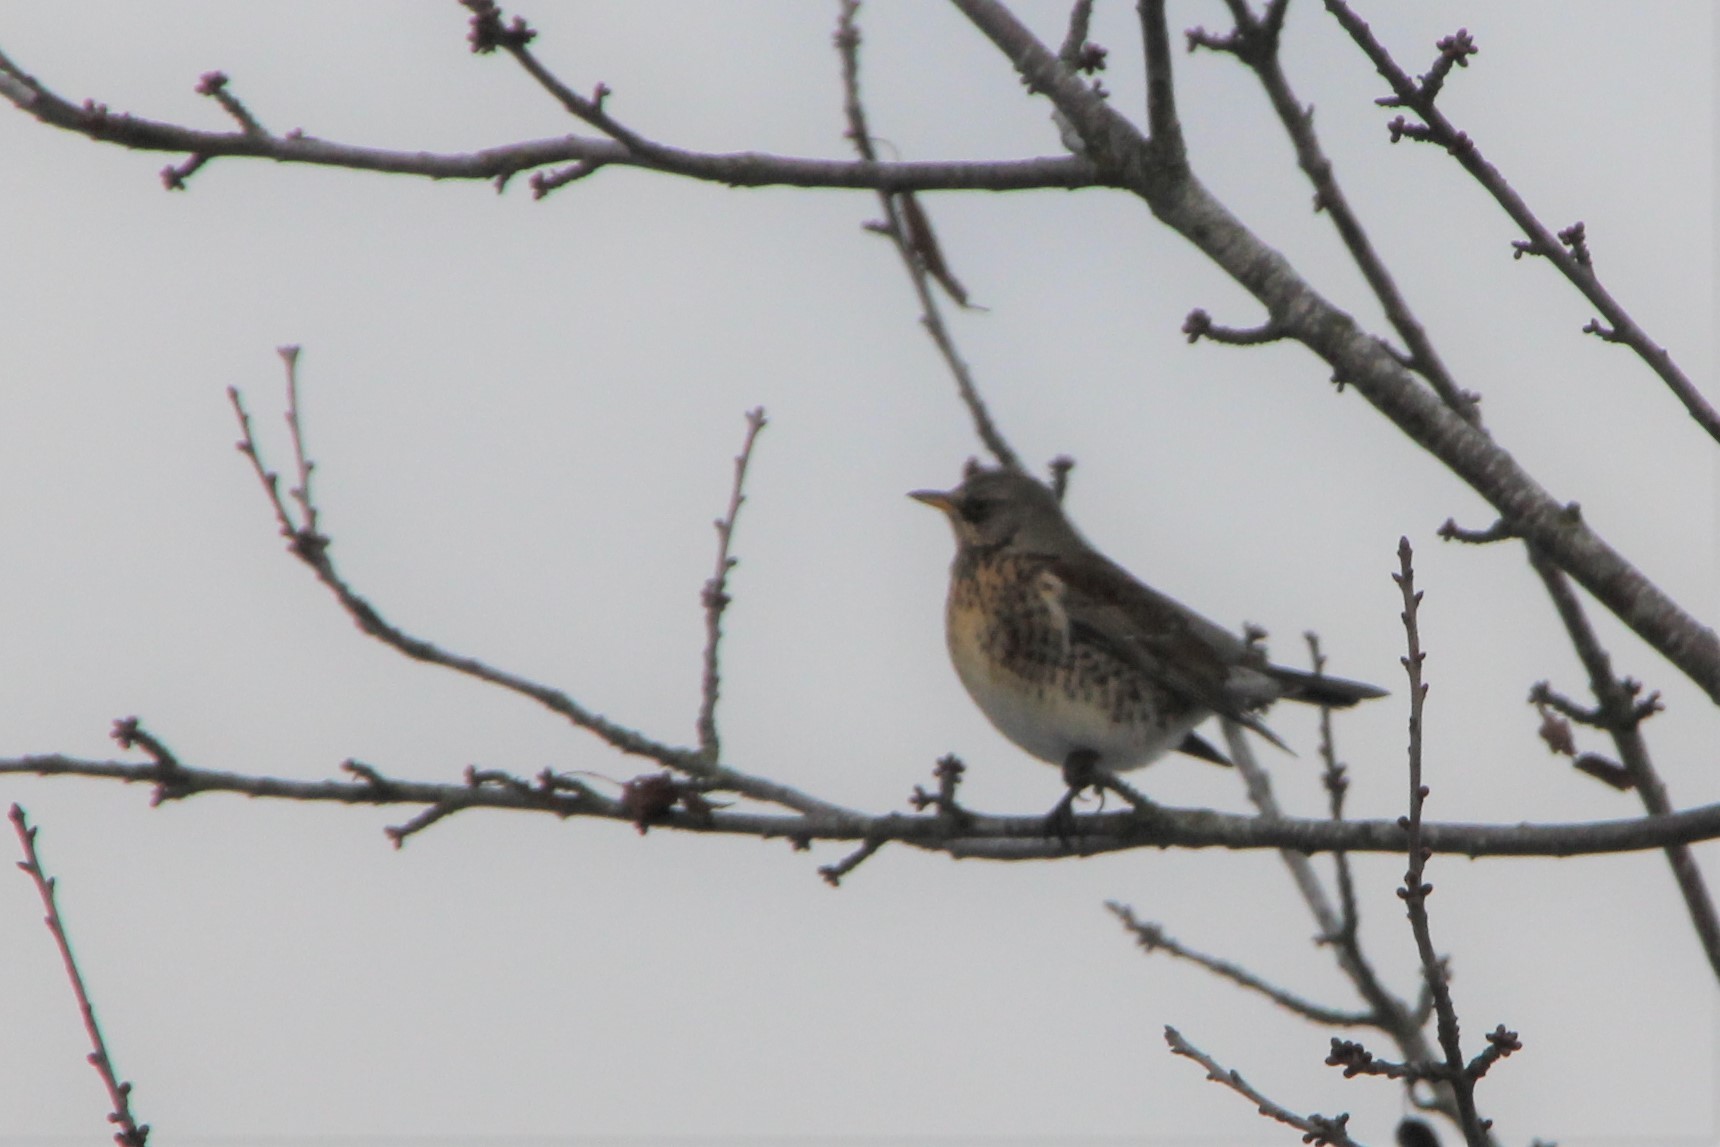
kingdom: Animalia
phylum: Chordata
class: Aves
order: Passeriformes
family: Turdidae
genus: Turdus
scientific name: Turdus pilaris
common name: Fieldfare
